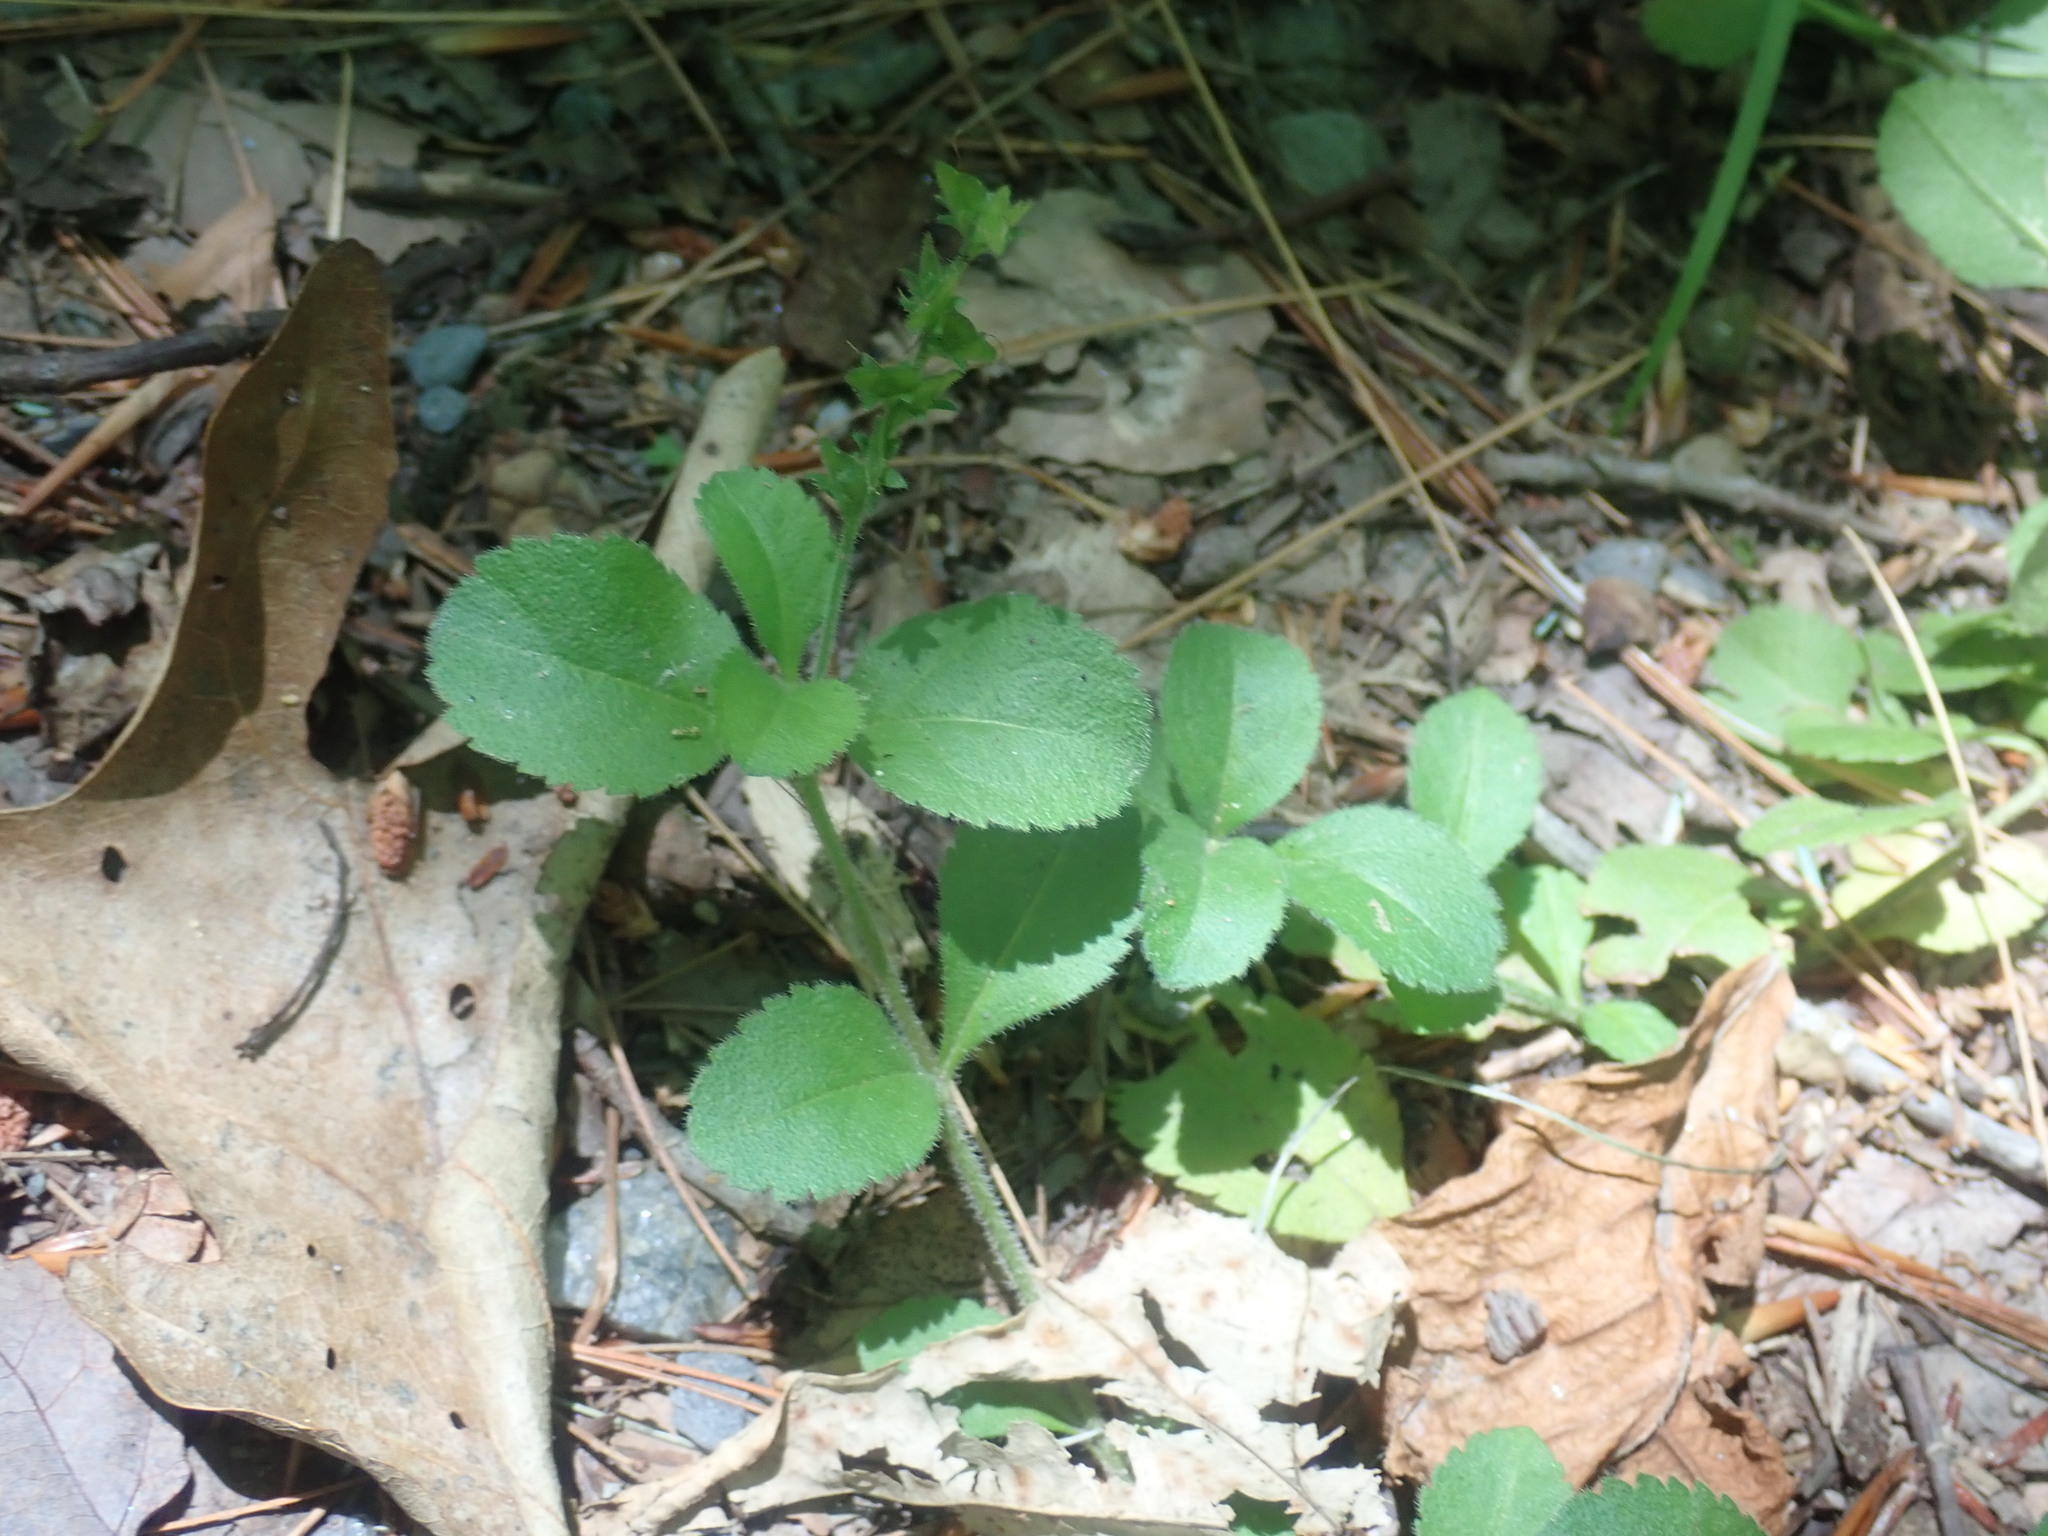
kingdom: Plantae
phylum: Tracheophyta
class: Magnoliopsida
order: Lamiales
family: Plantaginaceae
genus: Veronica
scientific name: Veronica officinalis
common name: Common speedwell
